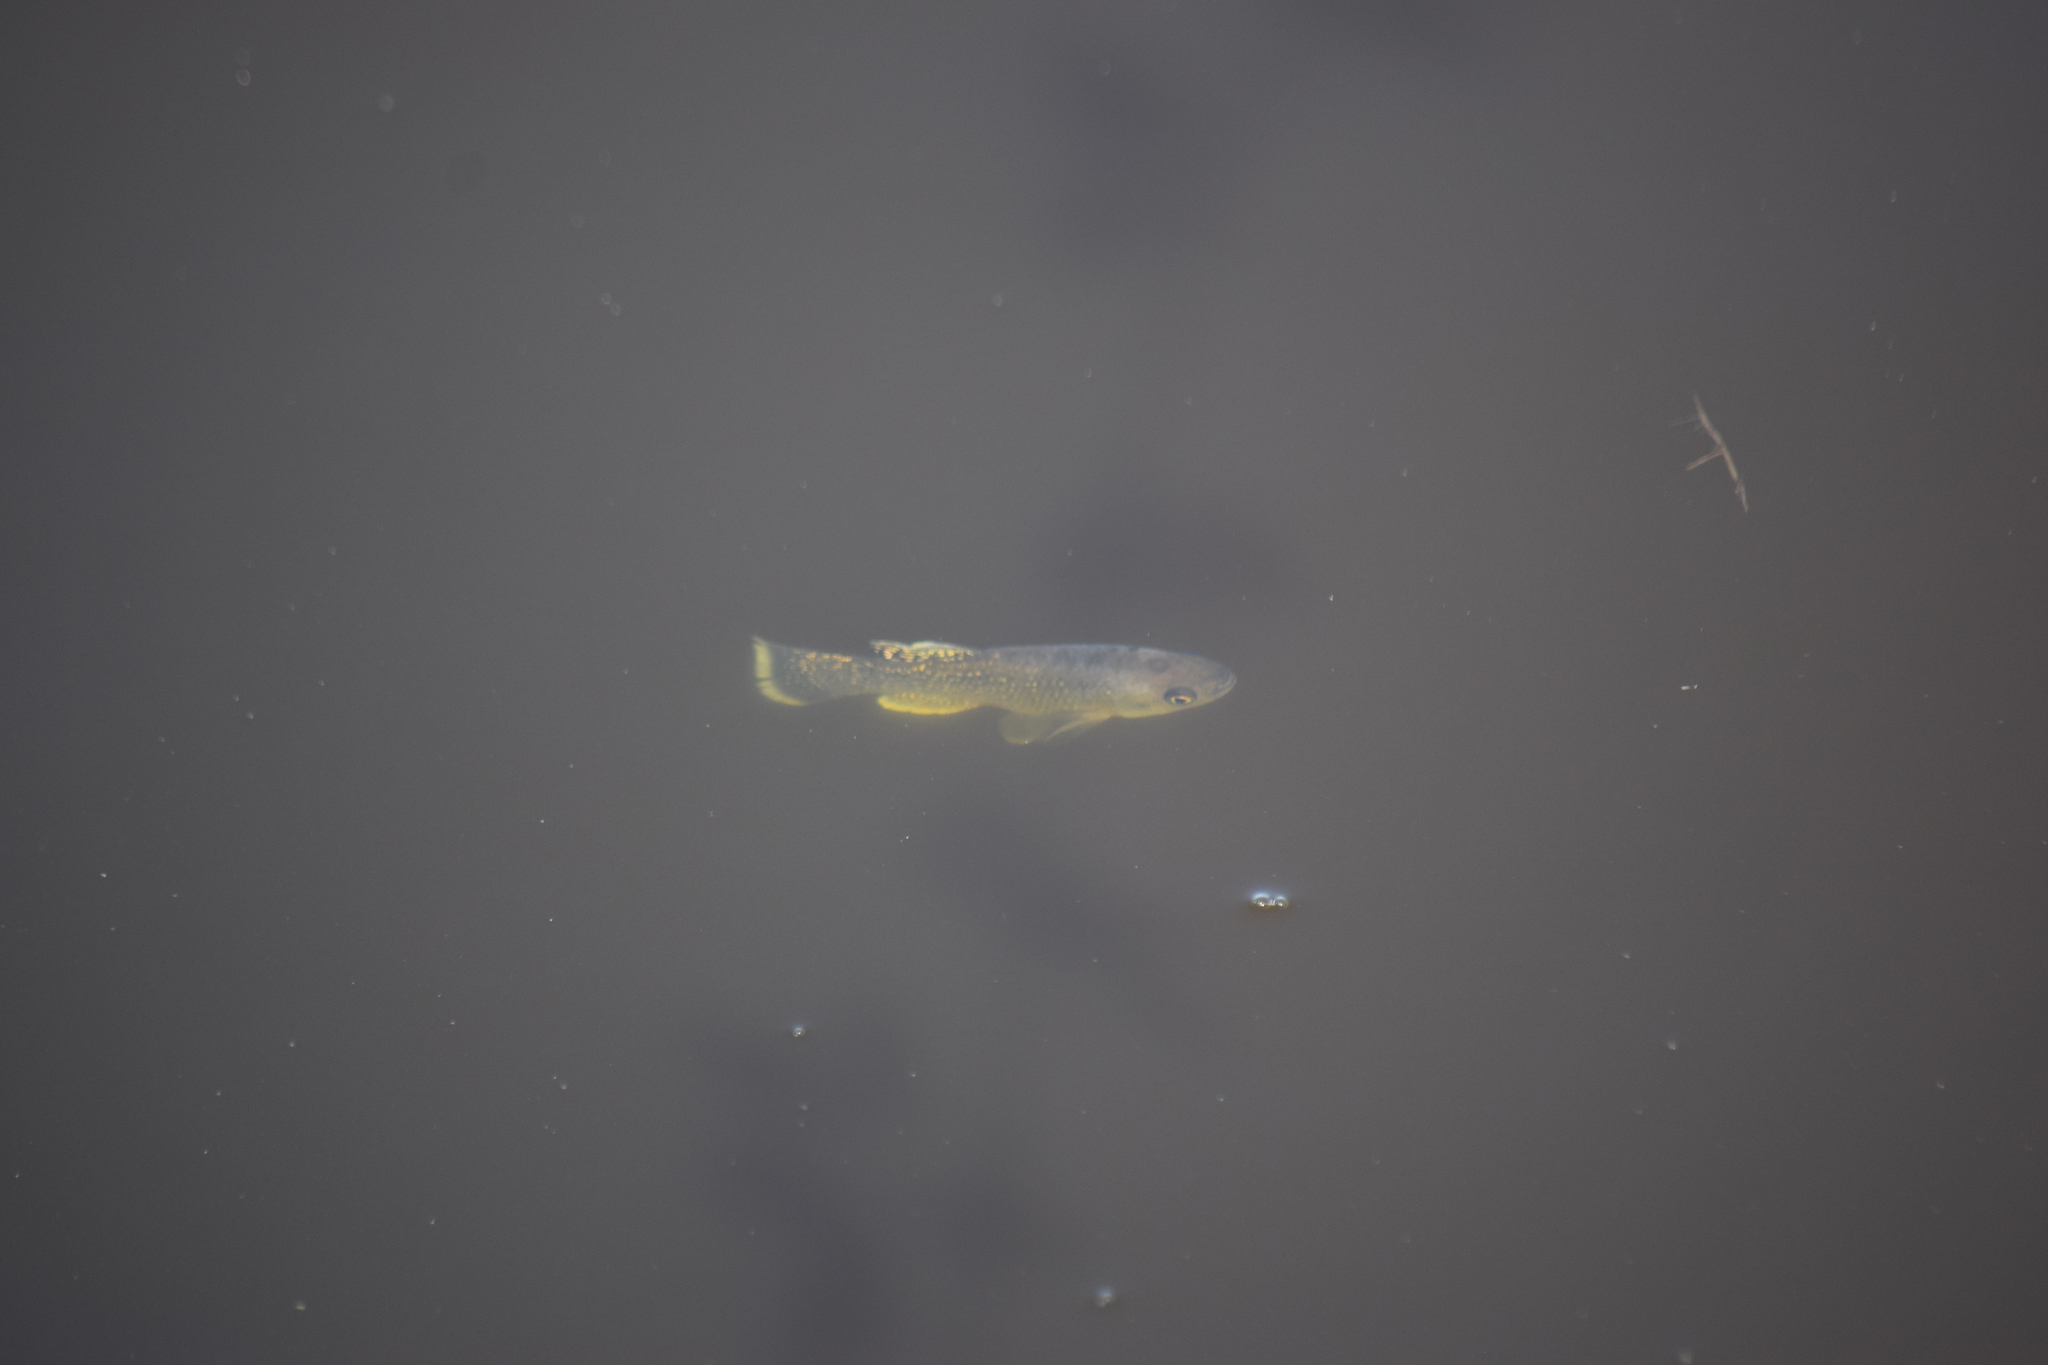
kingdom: Animalia
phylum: Chordata
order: Cyprinodontiformes
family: Fundulidae
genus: Fundulus
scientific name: Fundulus heteroclitus
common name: Mummichog
